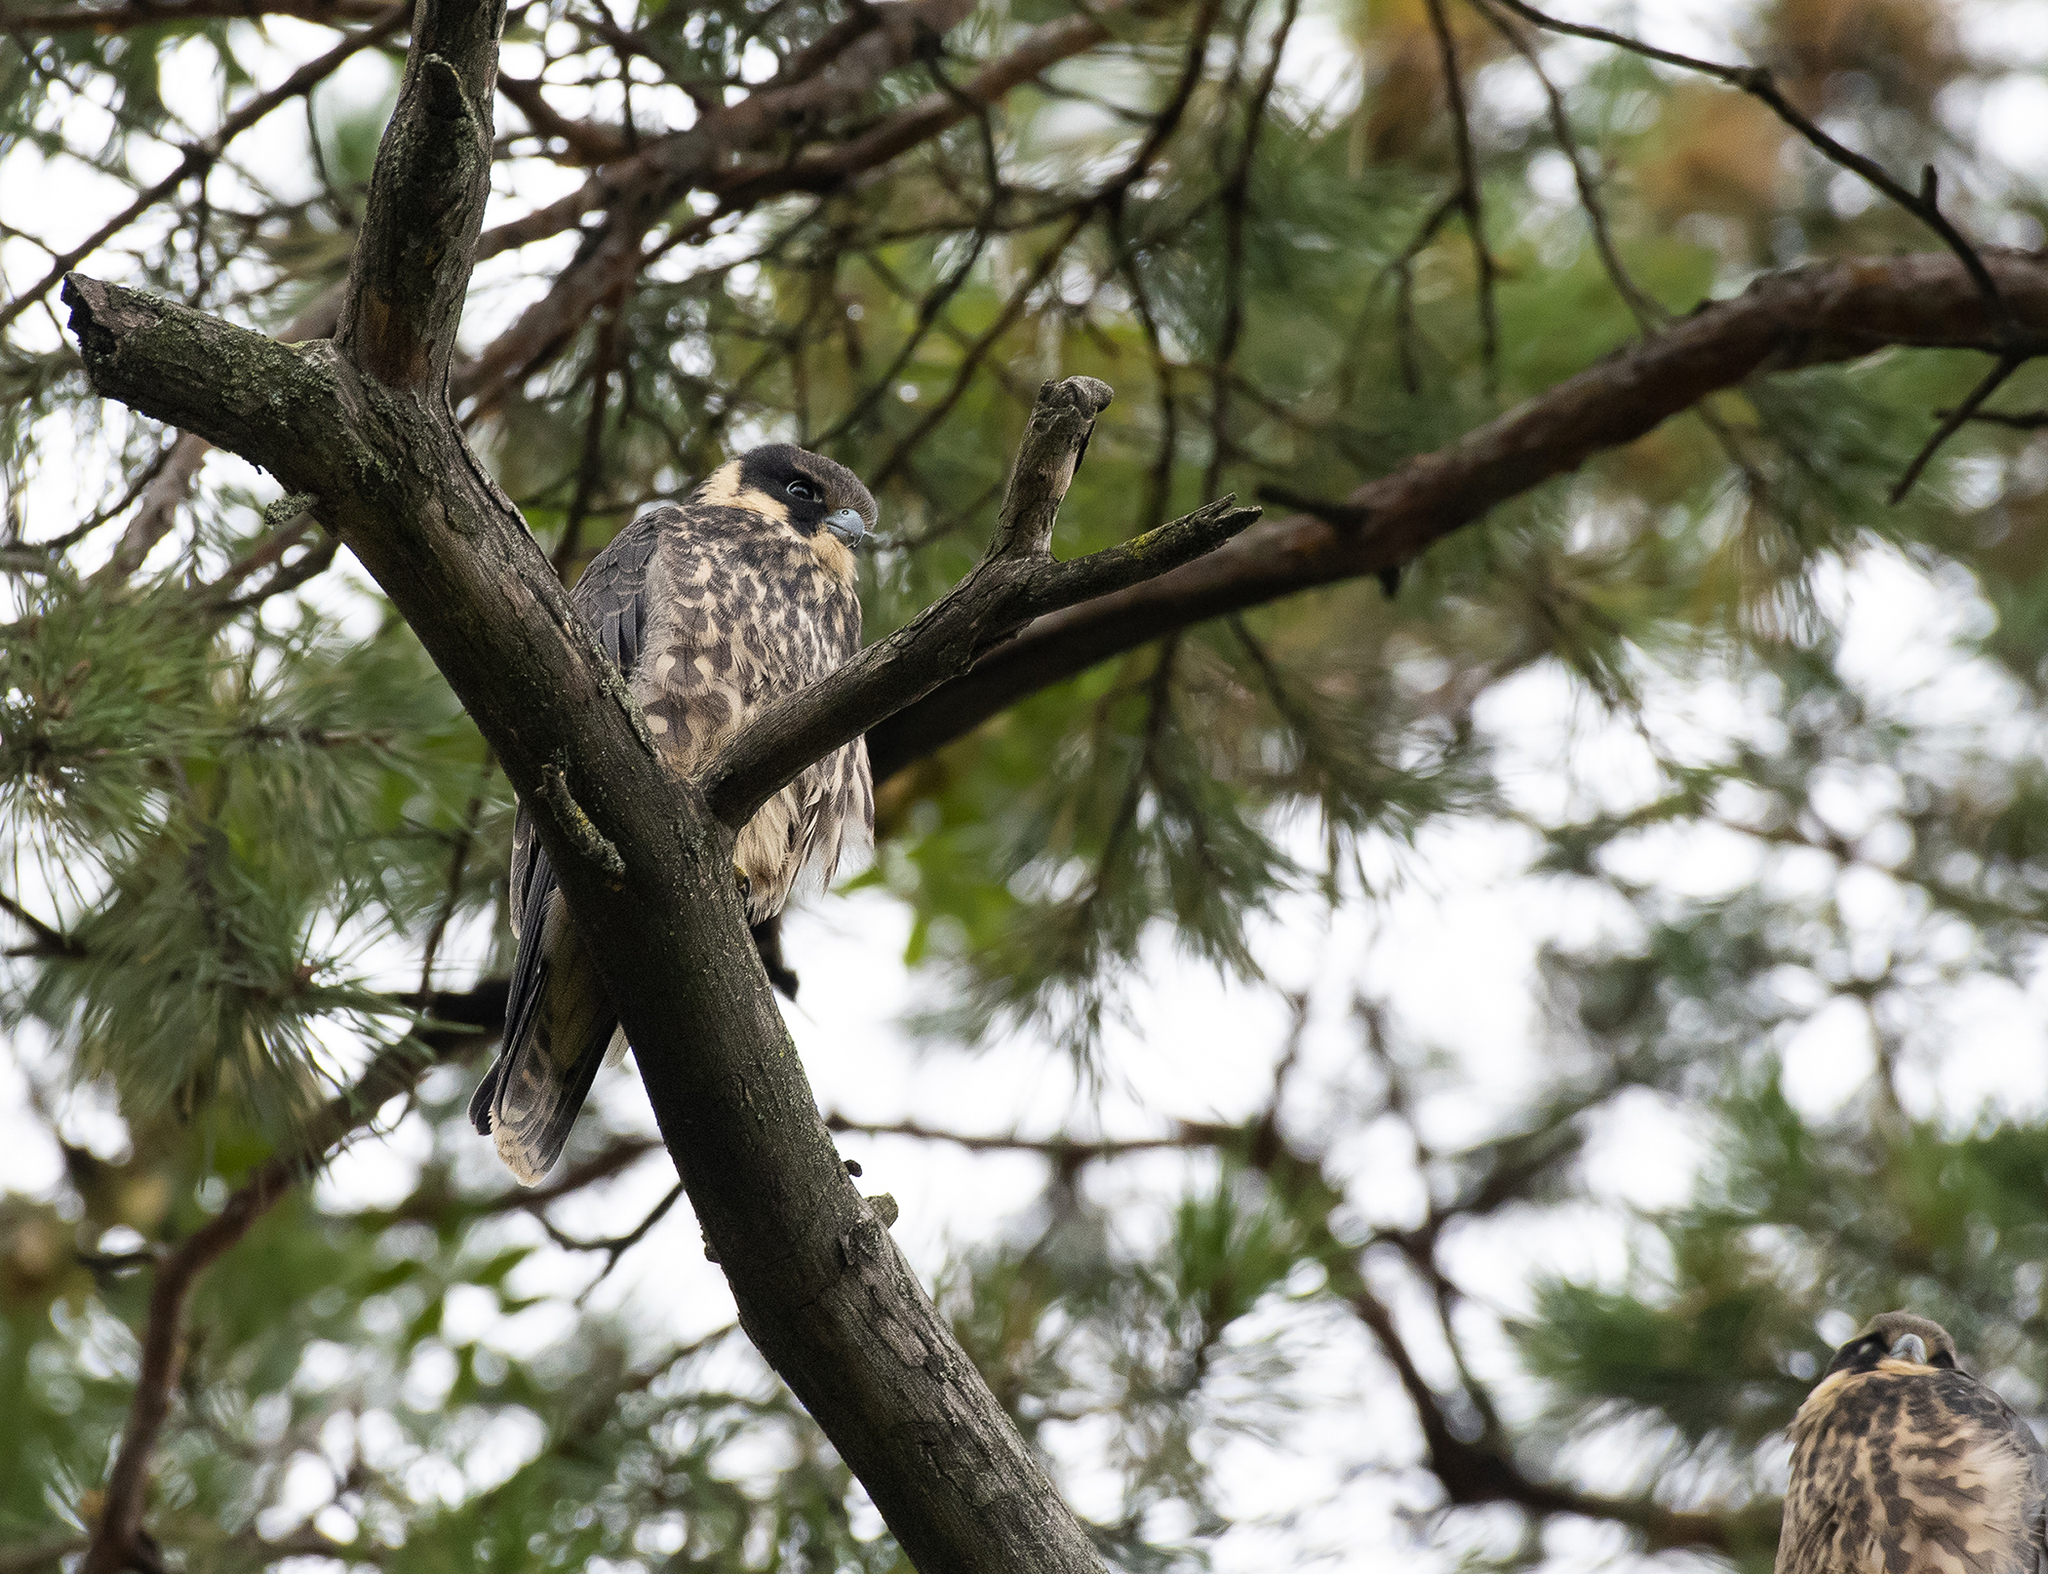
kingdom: Animalia
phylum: Chordata
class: Aves
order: Falconiformes
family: Falconidae
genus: Falco
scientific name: Falco subbuteo
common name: Eurasian hobby
